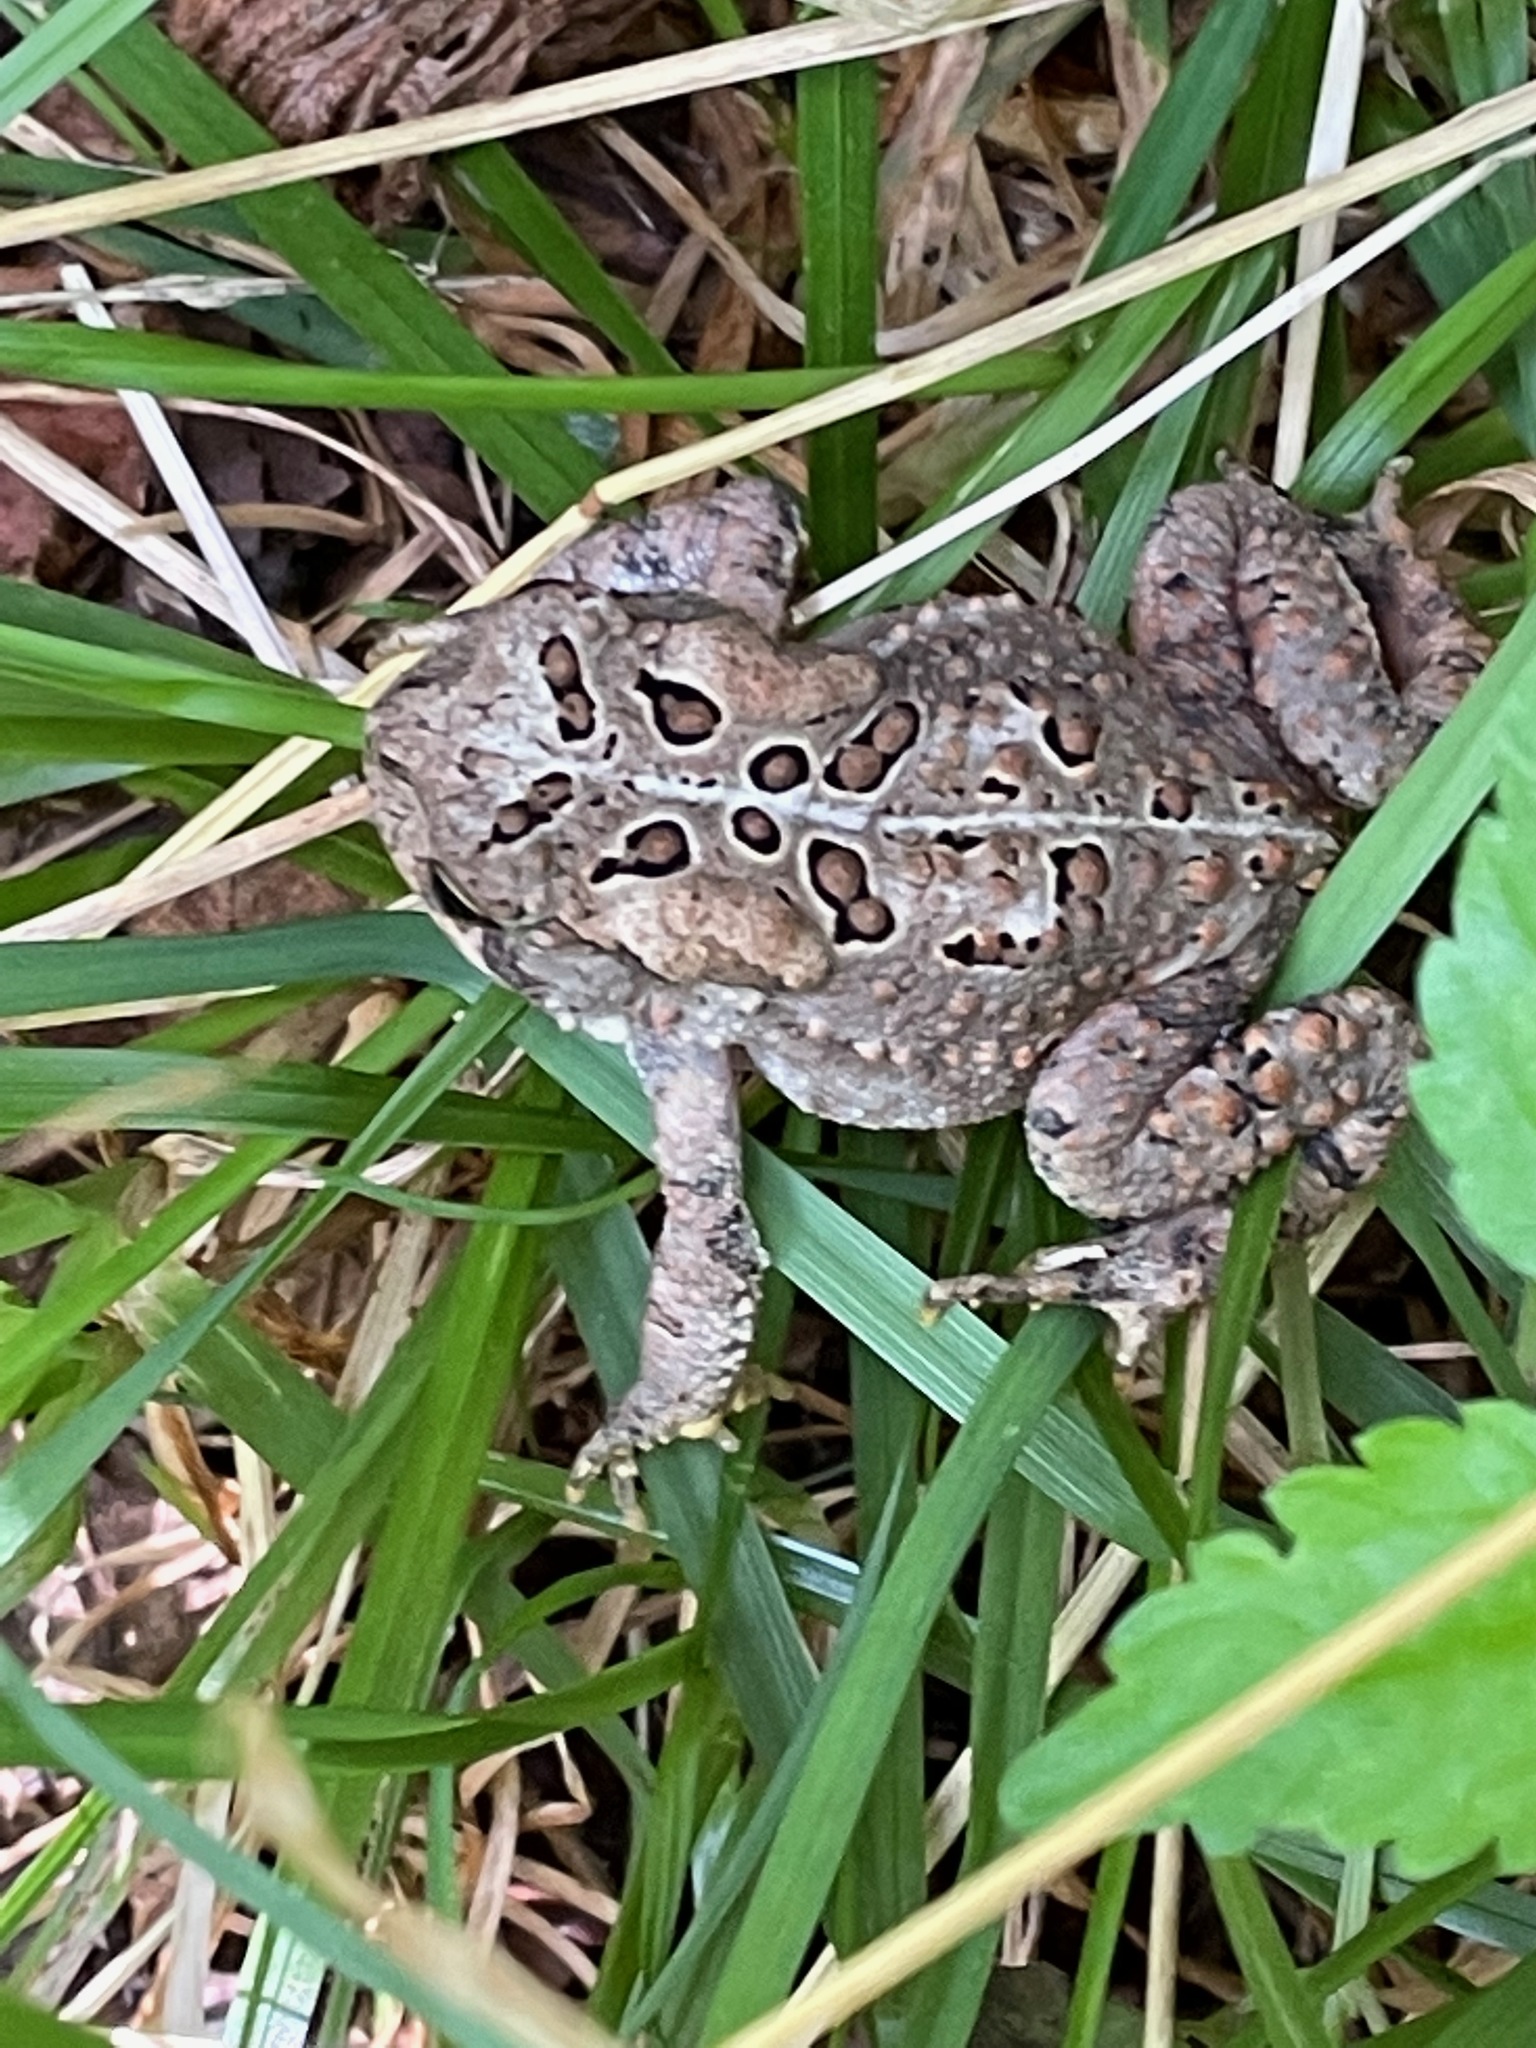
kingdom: Animalia
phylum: Chordata
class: Amphibia
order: Anura
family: Bufonidae
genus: Anaxyrus
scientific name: Anaxyrus americanus
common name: American toad
